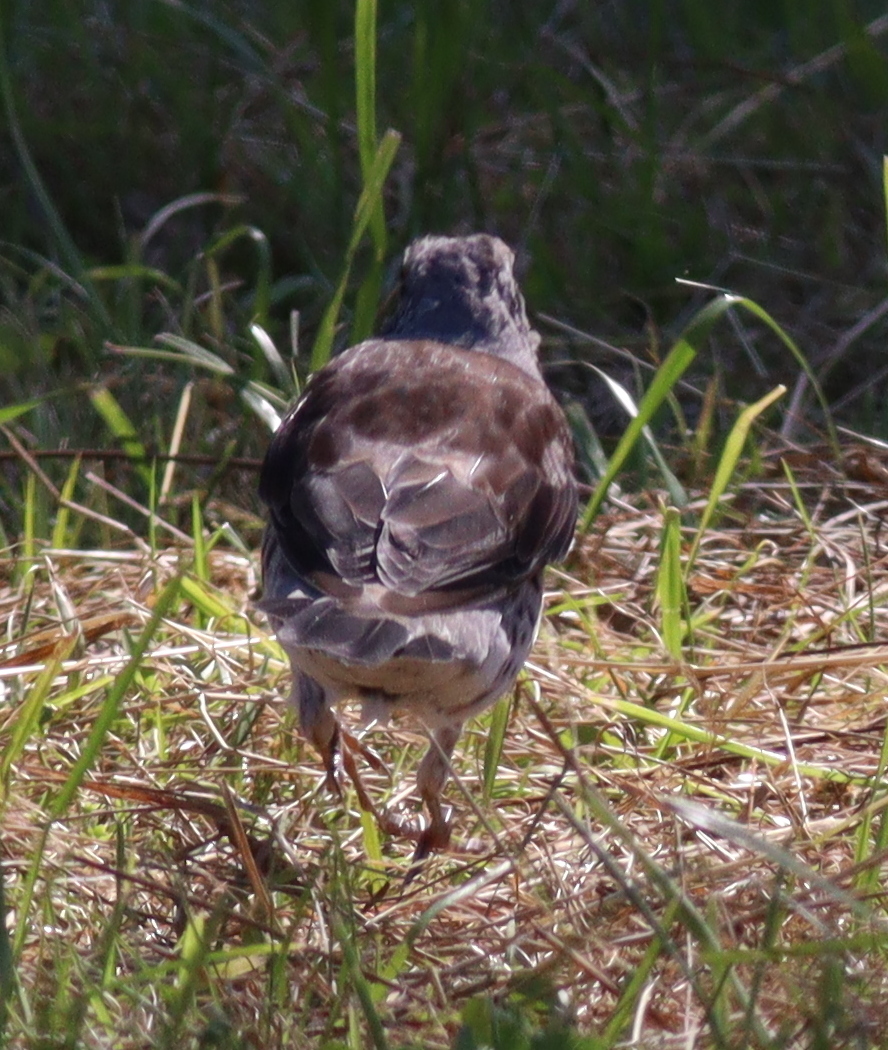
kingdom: Animalia
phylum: Chordata
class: Aves
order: Passeriformes
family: Turdidae
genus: Turdus
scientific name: Turdus pilaris
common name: Fieldfare
